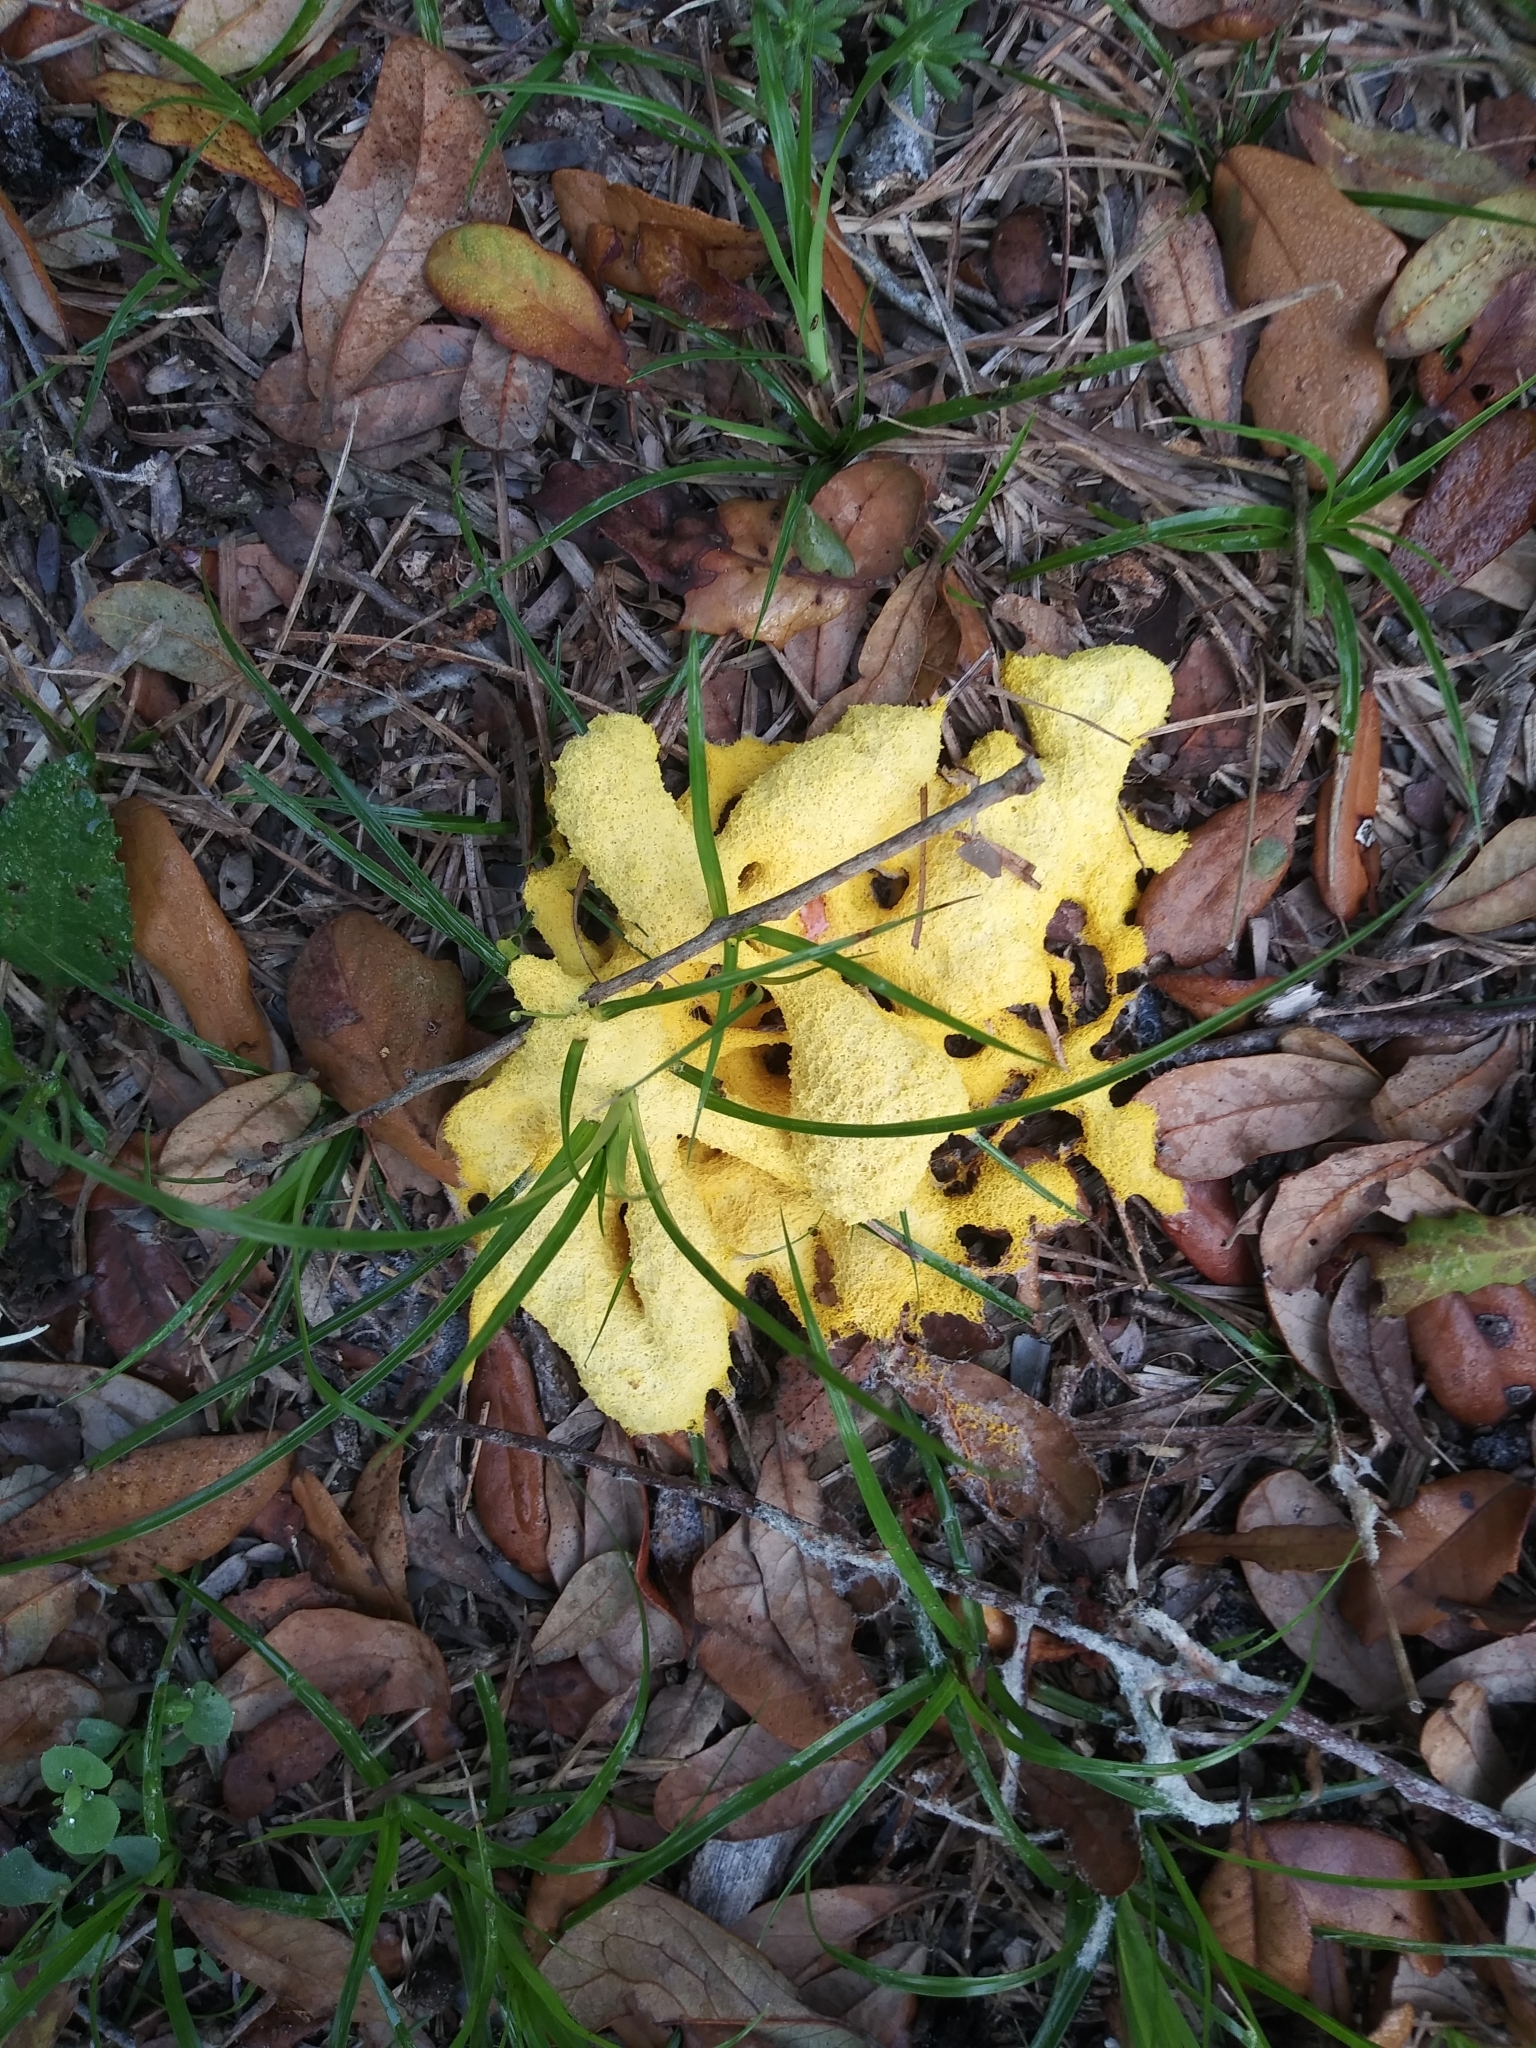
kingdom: Protozoa
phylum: Mycetozoa
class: Myxomycetes
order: Physarales
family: Physaraceae
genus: Fuligo
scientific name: Fuligo septica
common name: Dog vomit slime mold
